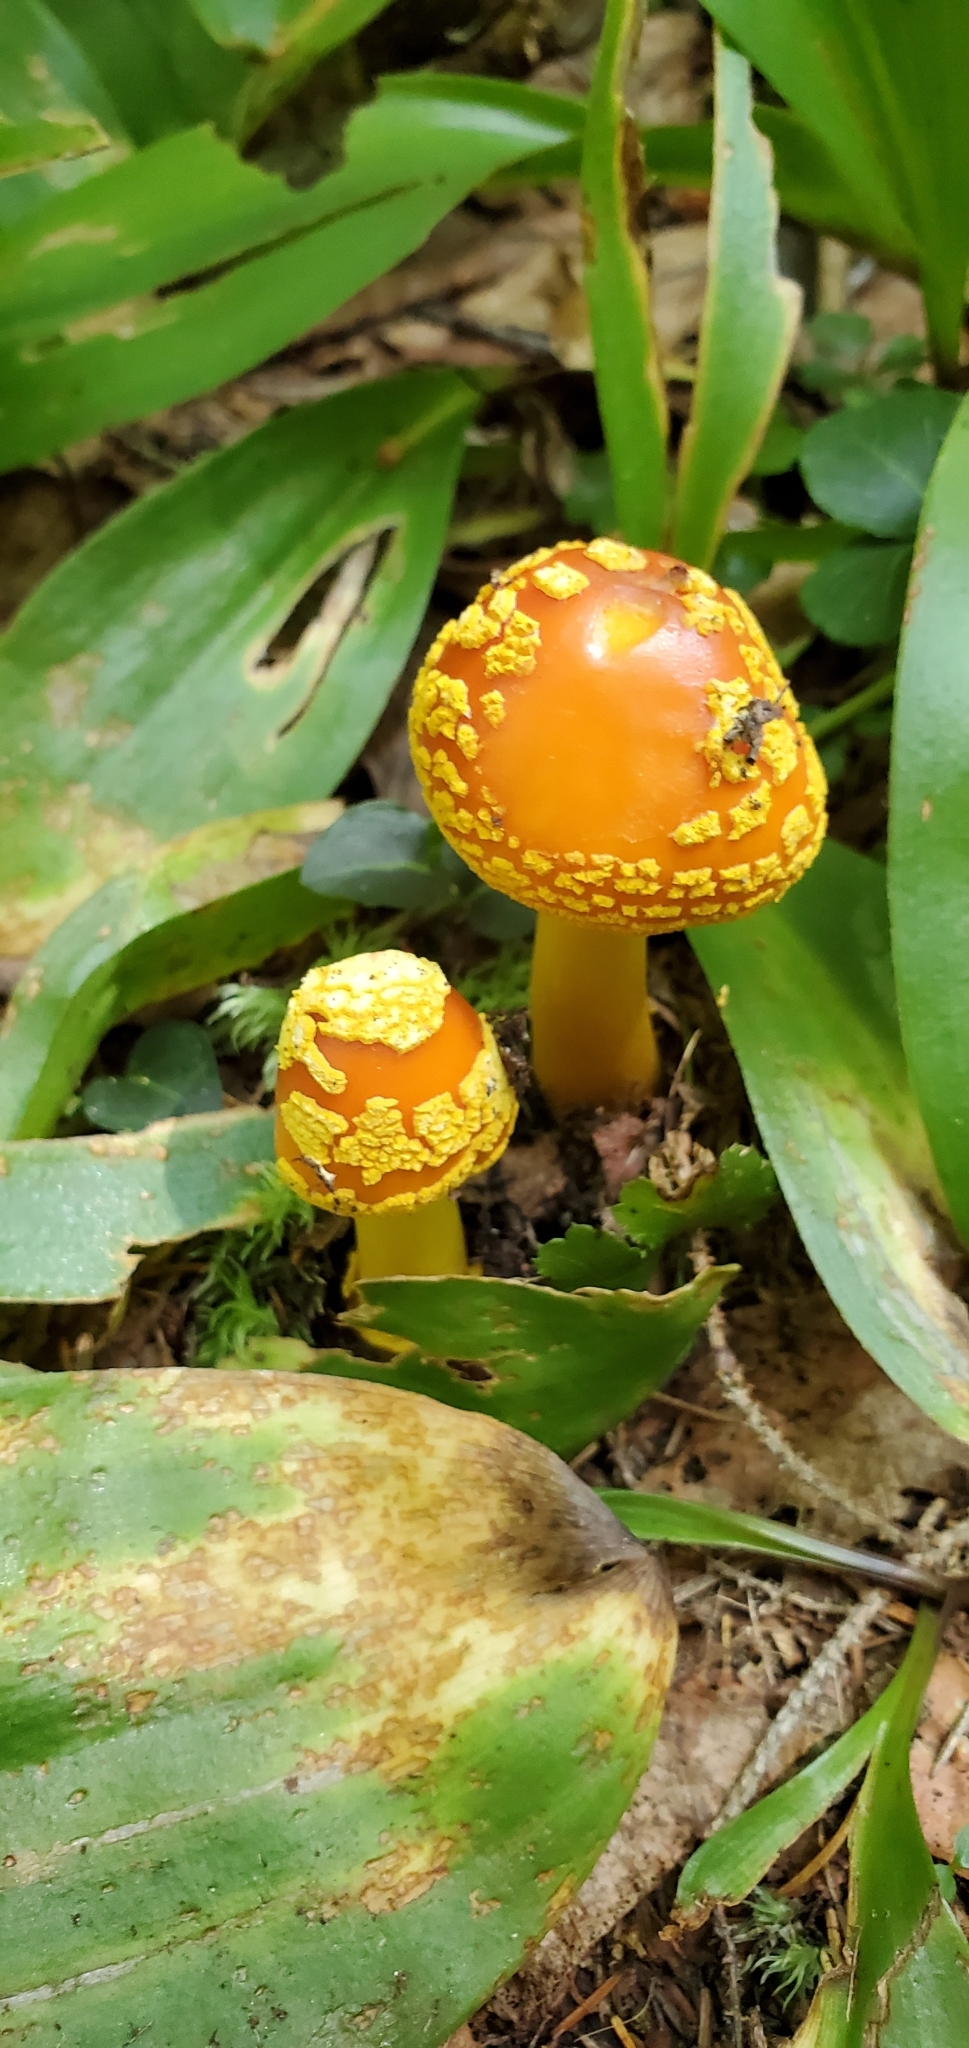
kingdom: Fungi
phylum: Basidiomycota
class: Agaricomycetes
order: Agaricales
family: Amanitaceae
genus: Amanita
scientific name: Amanita flavoconia
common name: Yellow patches
